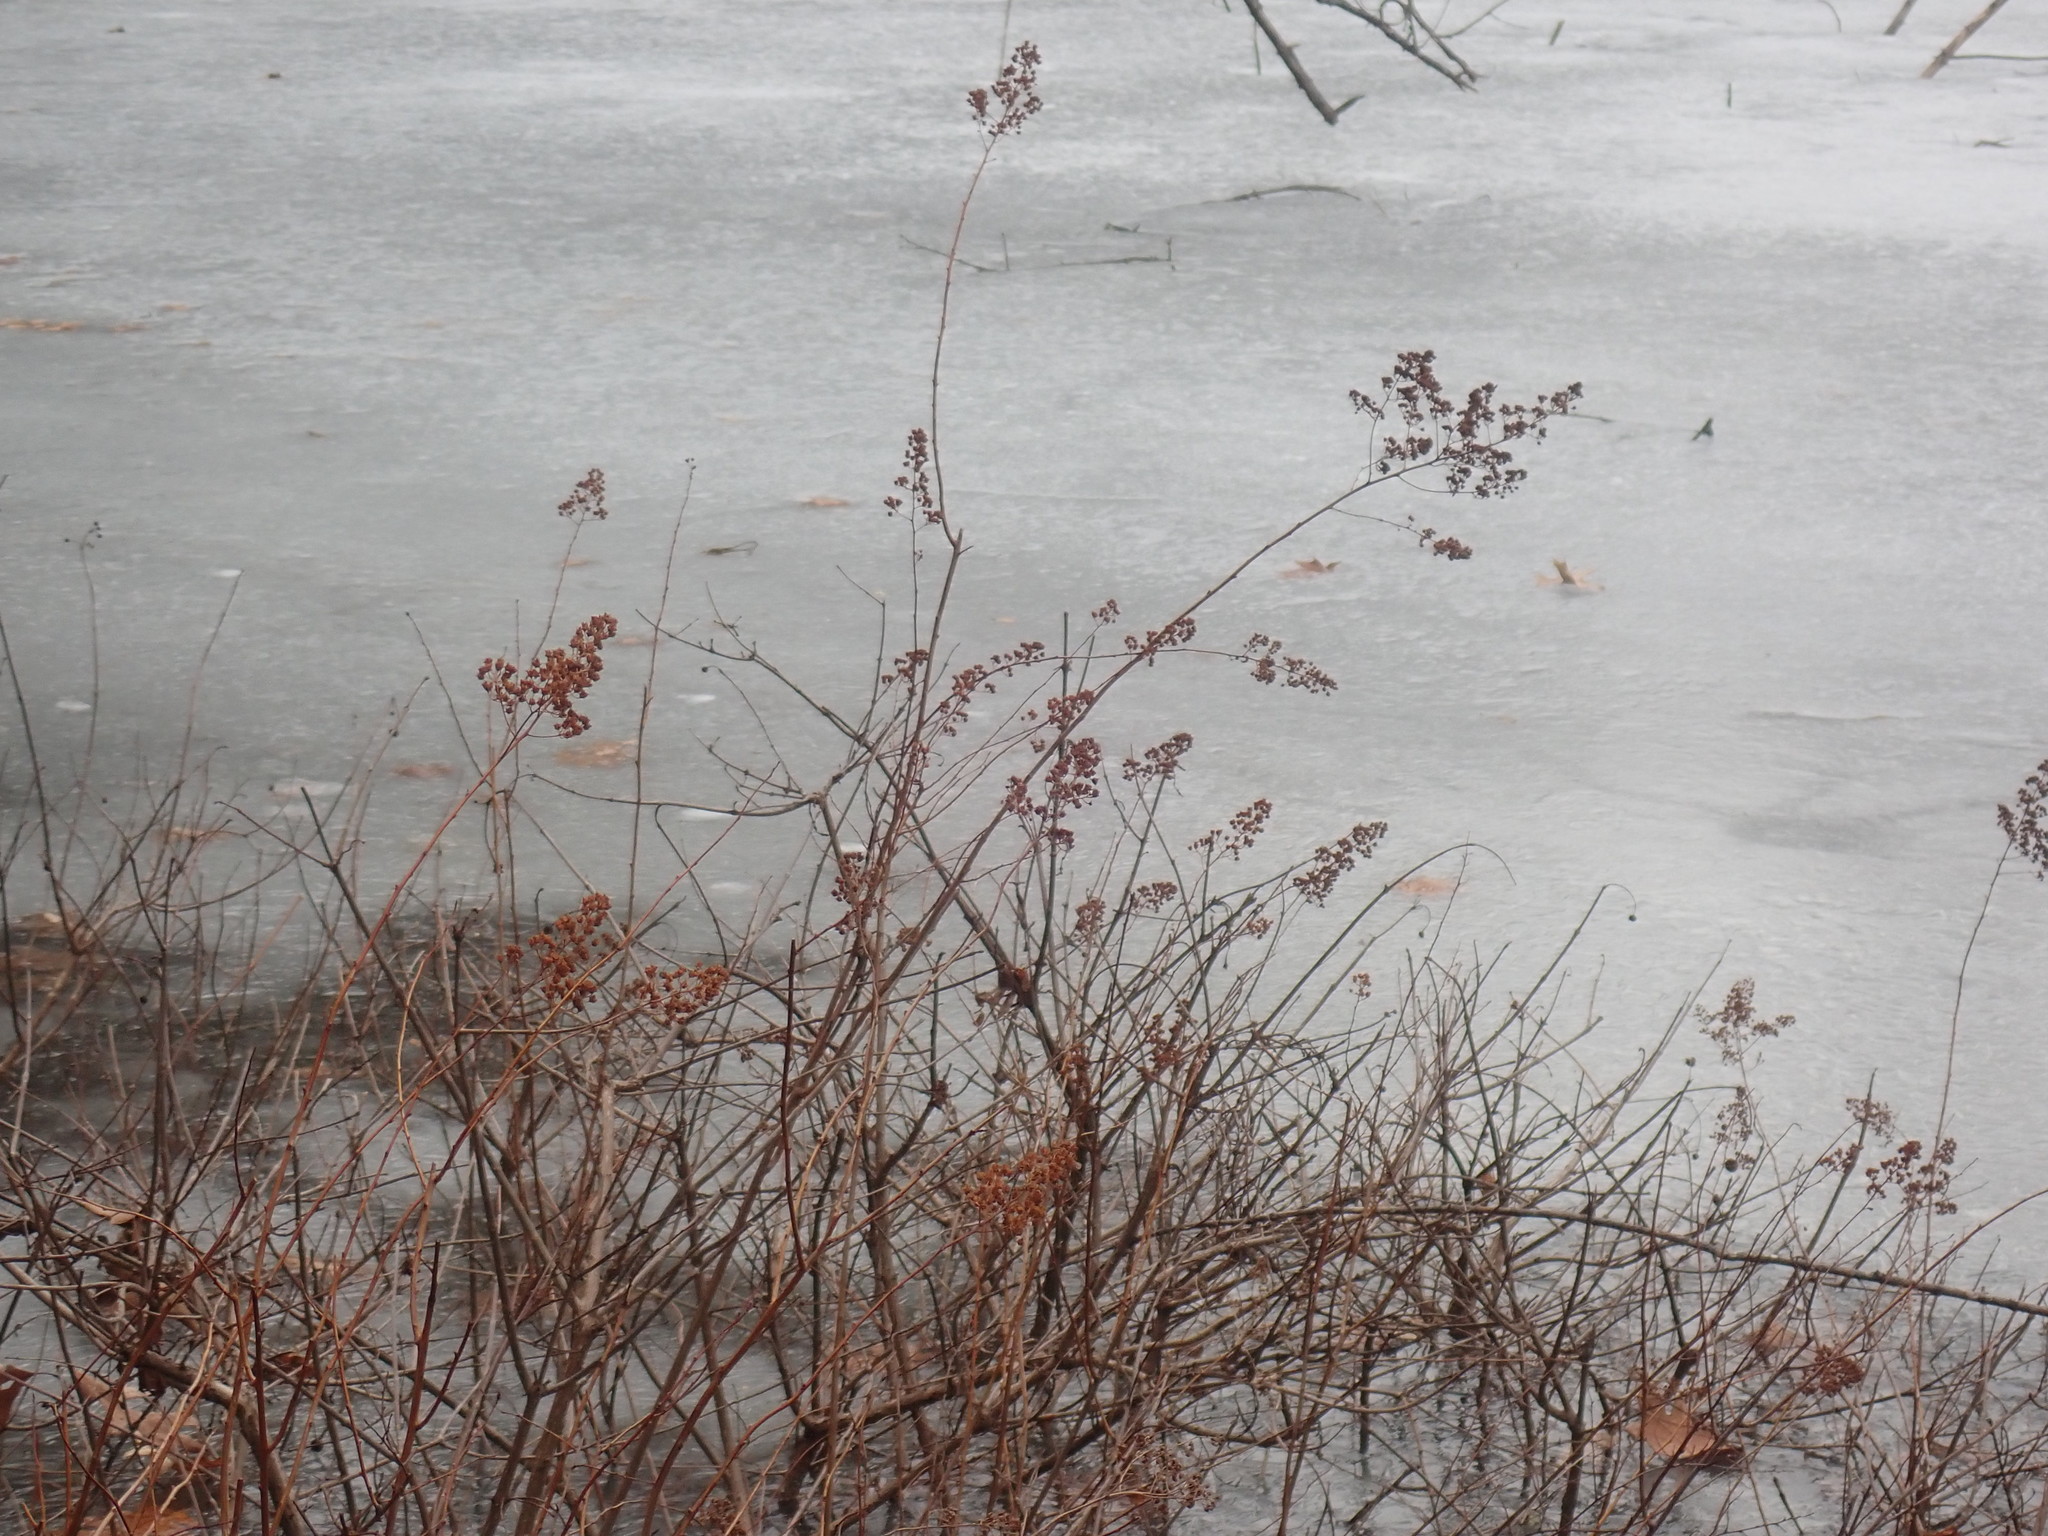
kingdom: Plantae
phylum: Tracheophyta
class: Magnoliopsida
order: Rosales
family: Rosaceae
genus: Spiraea
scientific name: Spiraea alba
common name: Pale bridewort
